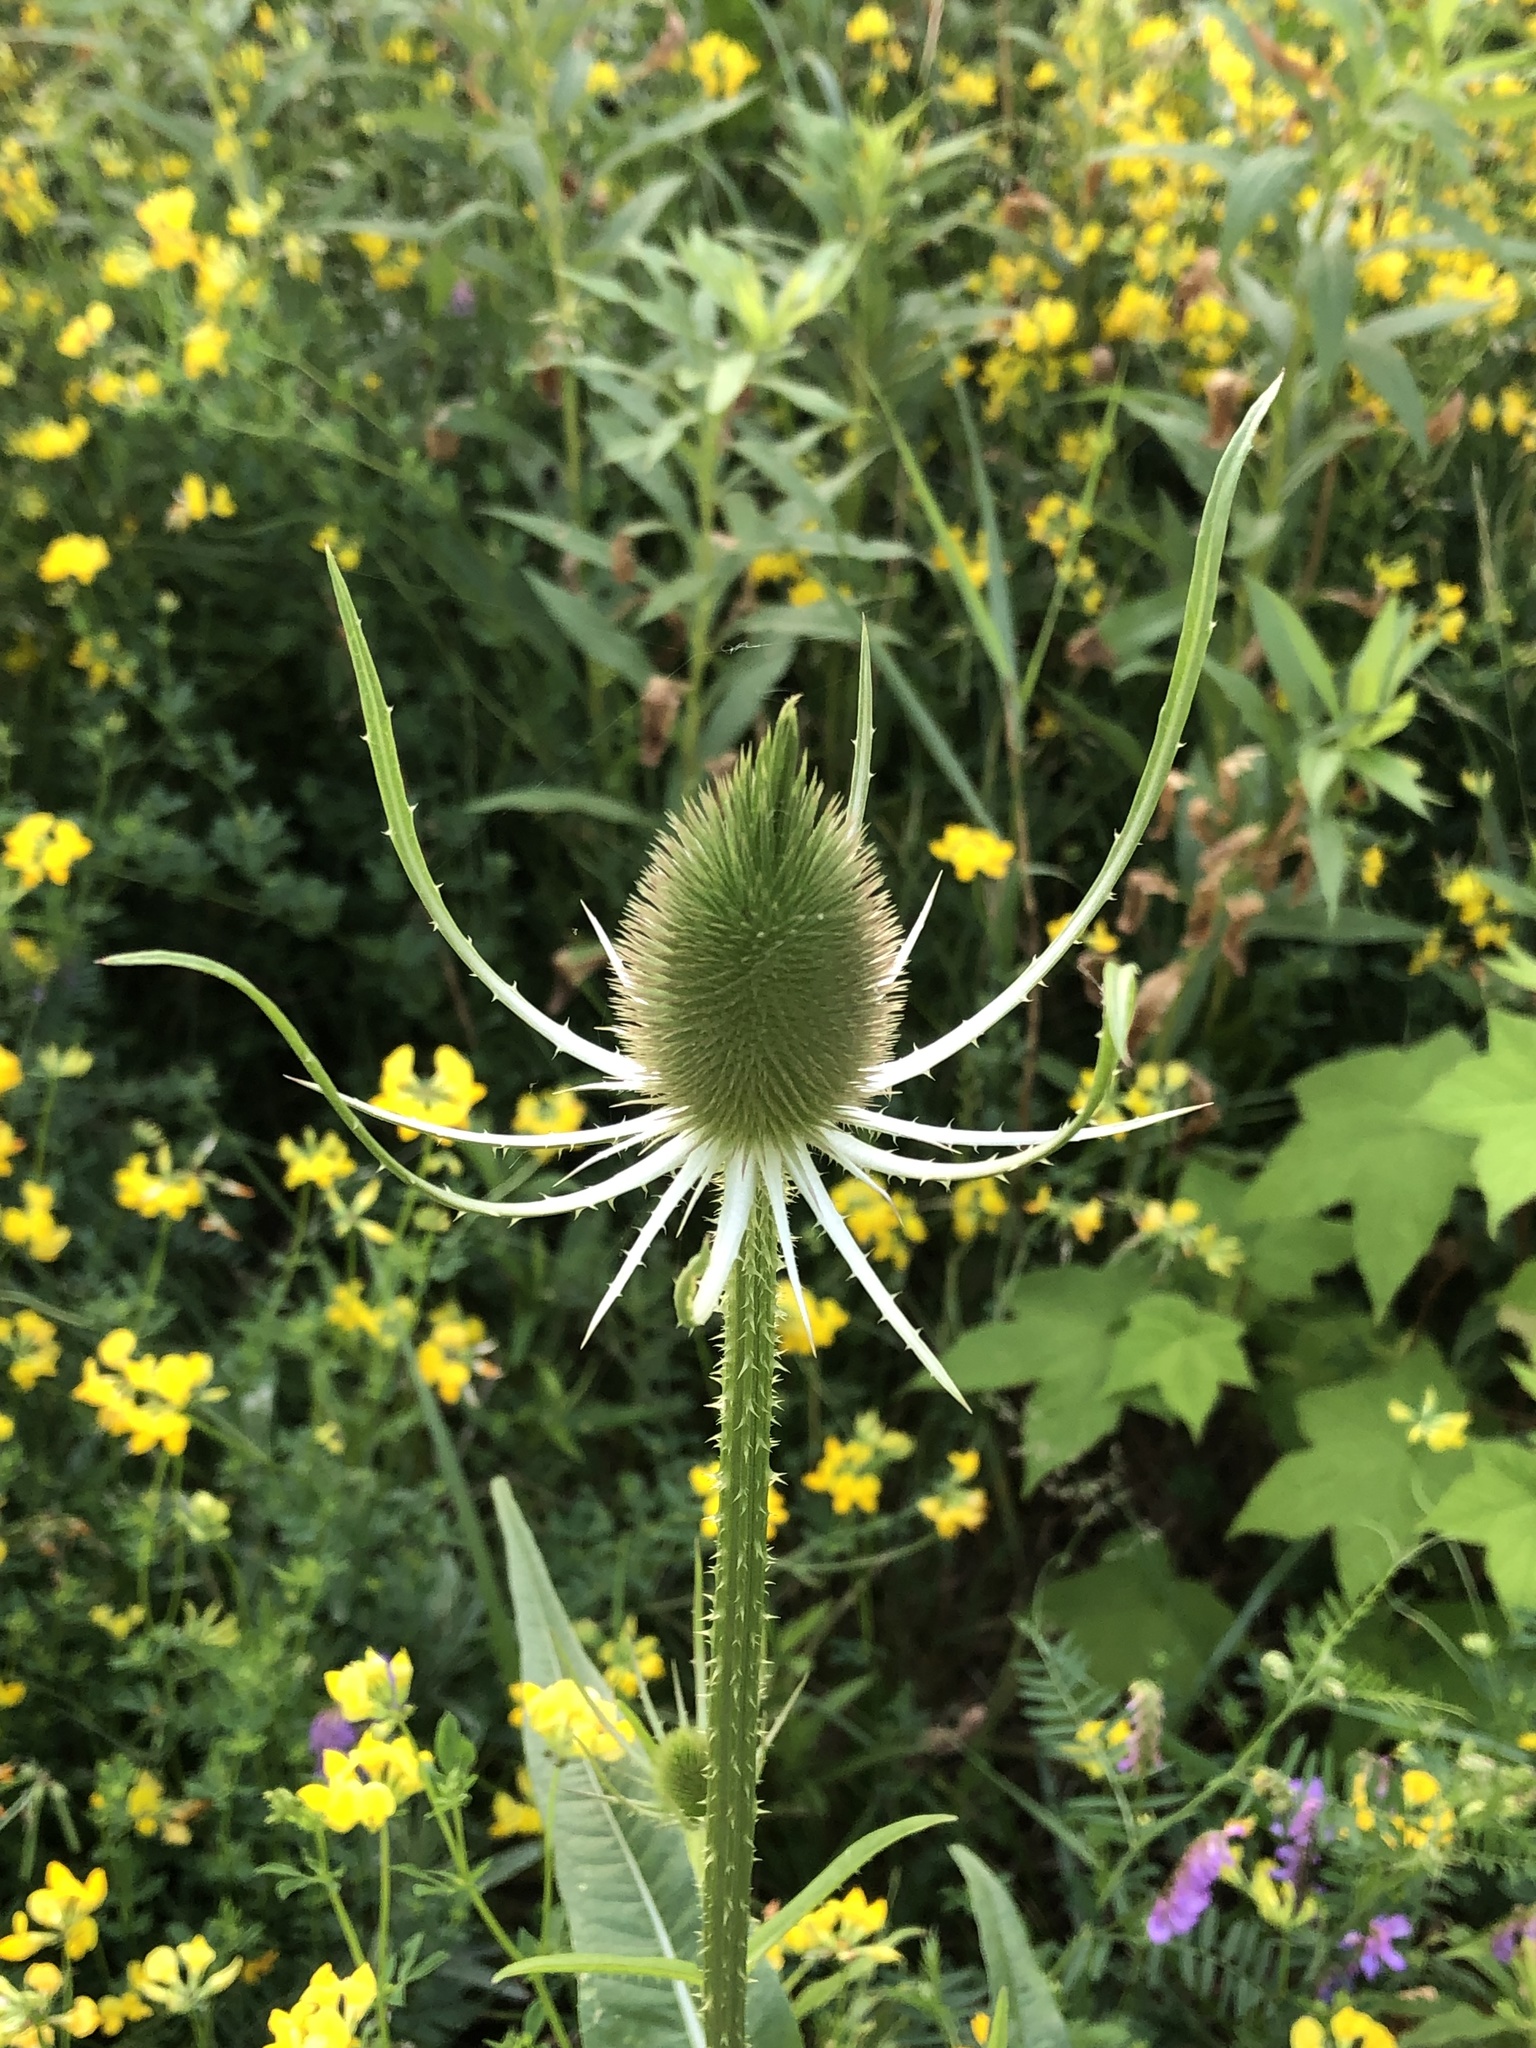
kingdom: Plantae
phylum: Tracheophyta
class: Magnoliopsida
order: Dipsacales
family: Caprifoliaceae
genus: Dipsacus
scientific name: Dipsacus fullonum
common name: Teasel
